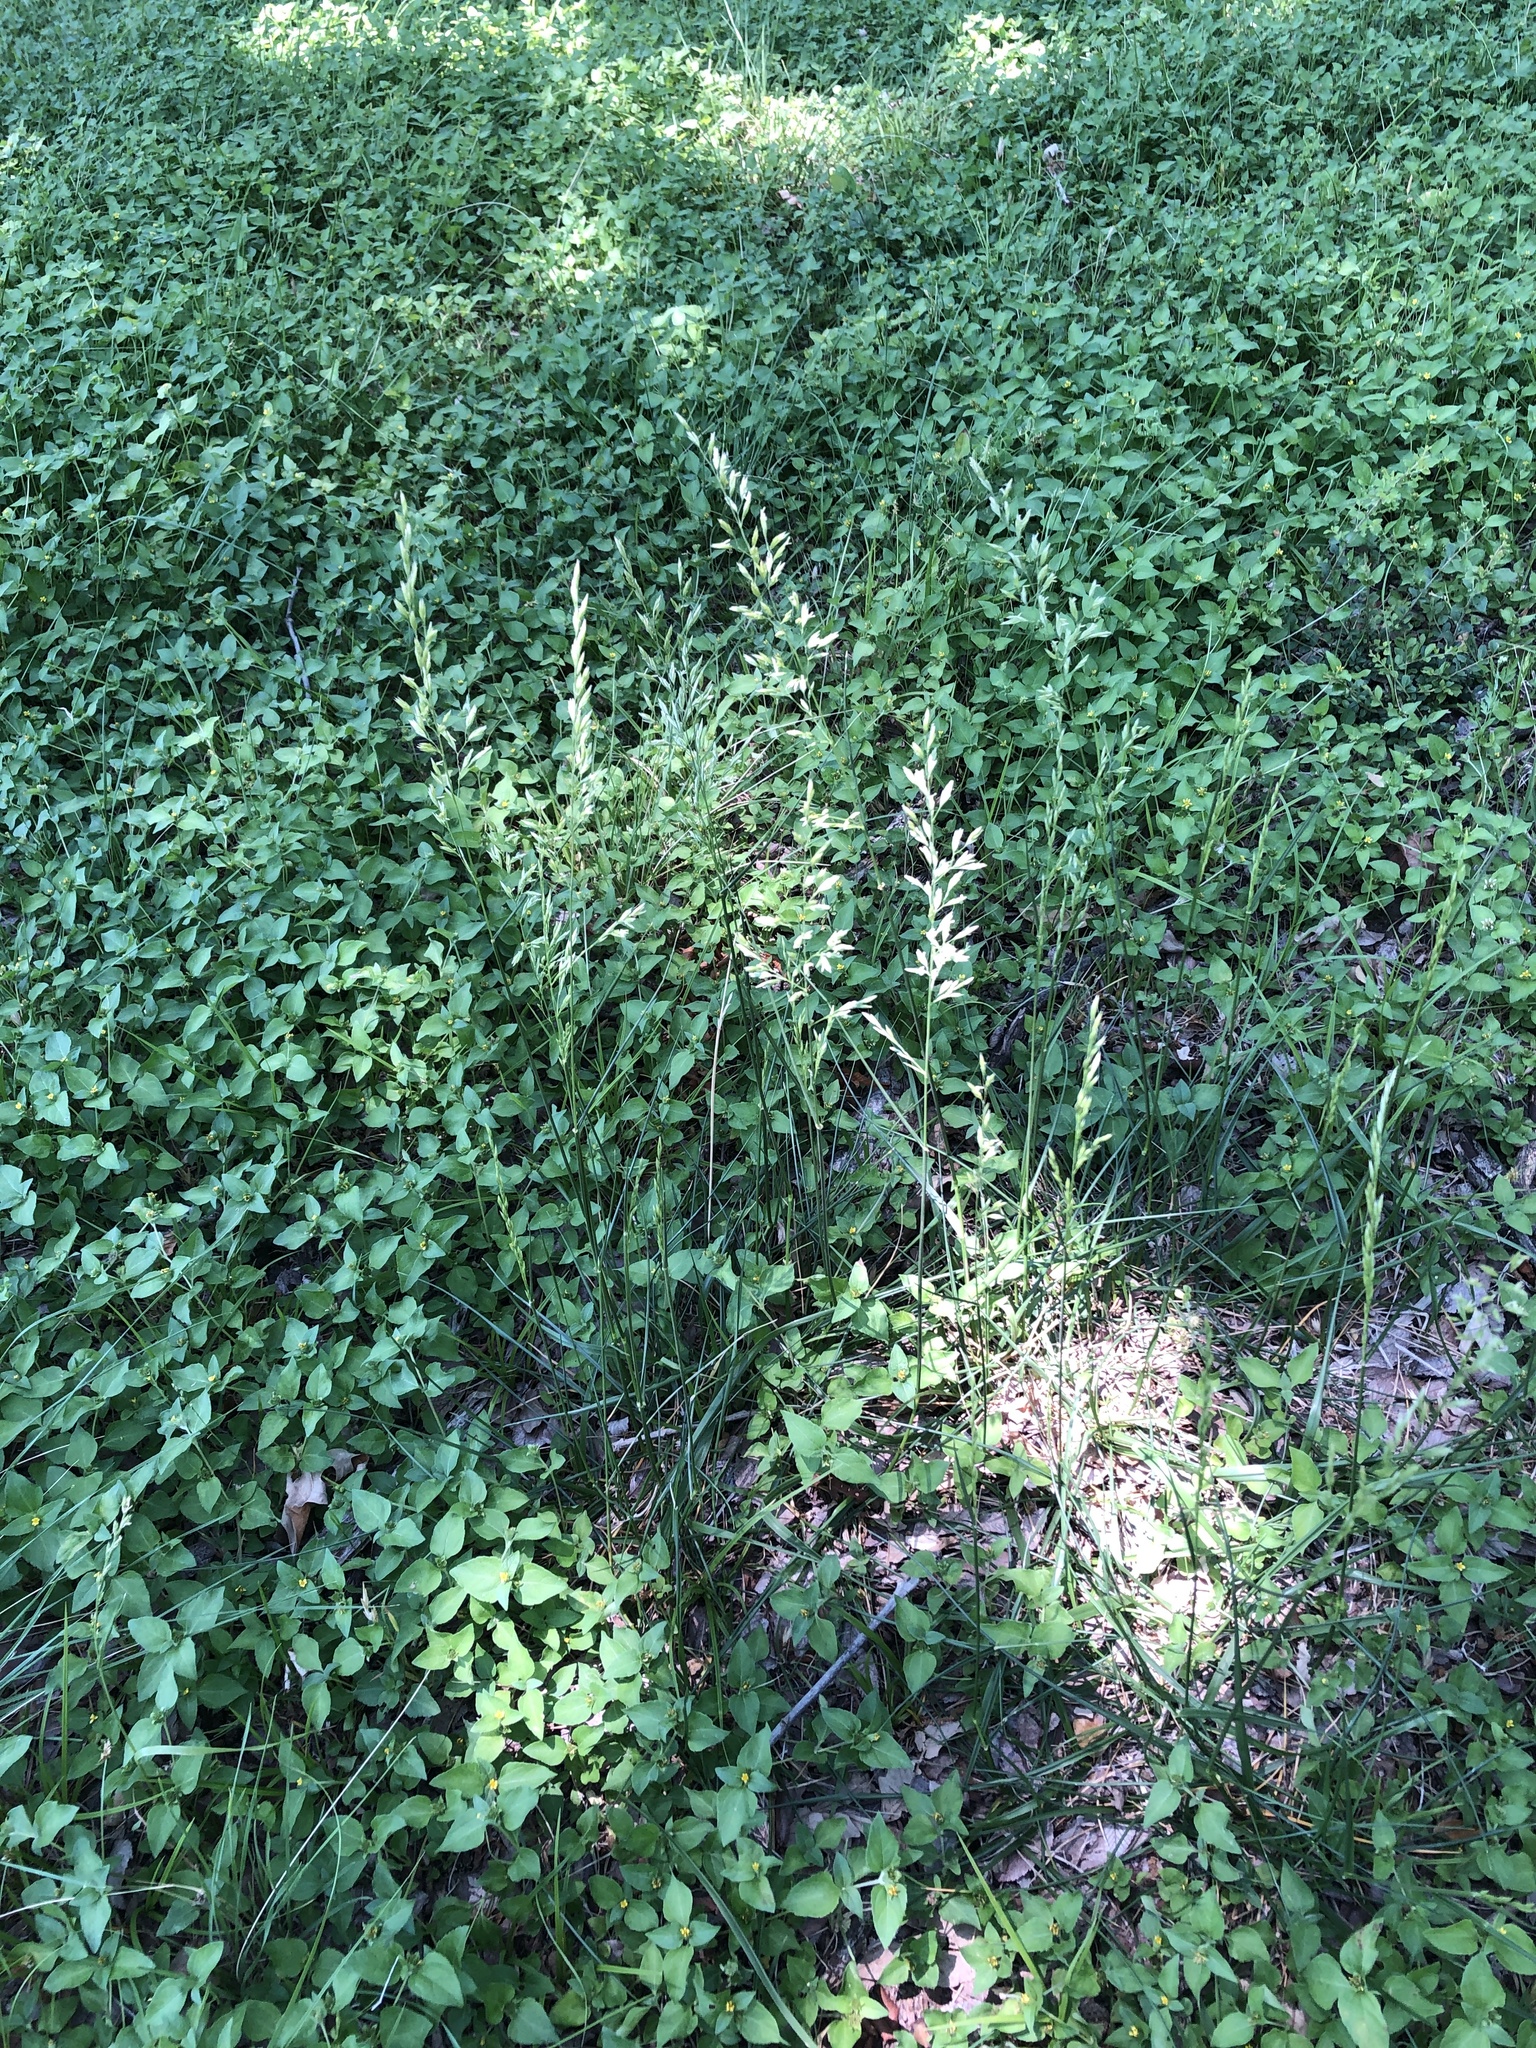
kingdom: Plantae
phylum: Tracheophyta
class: Liliopsida
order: Poales
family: Poaceae
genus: Lolium
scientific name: Lolium arundinaceum
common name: Reed fescue
